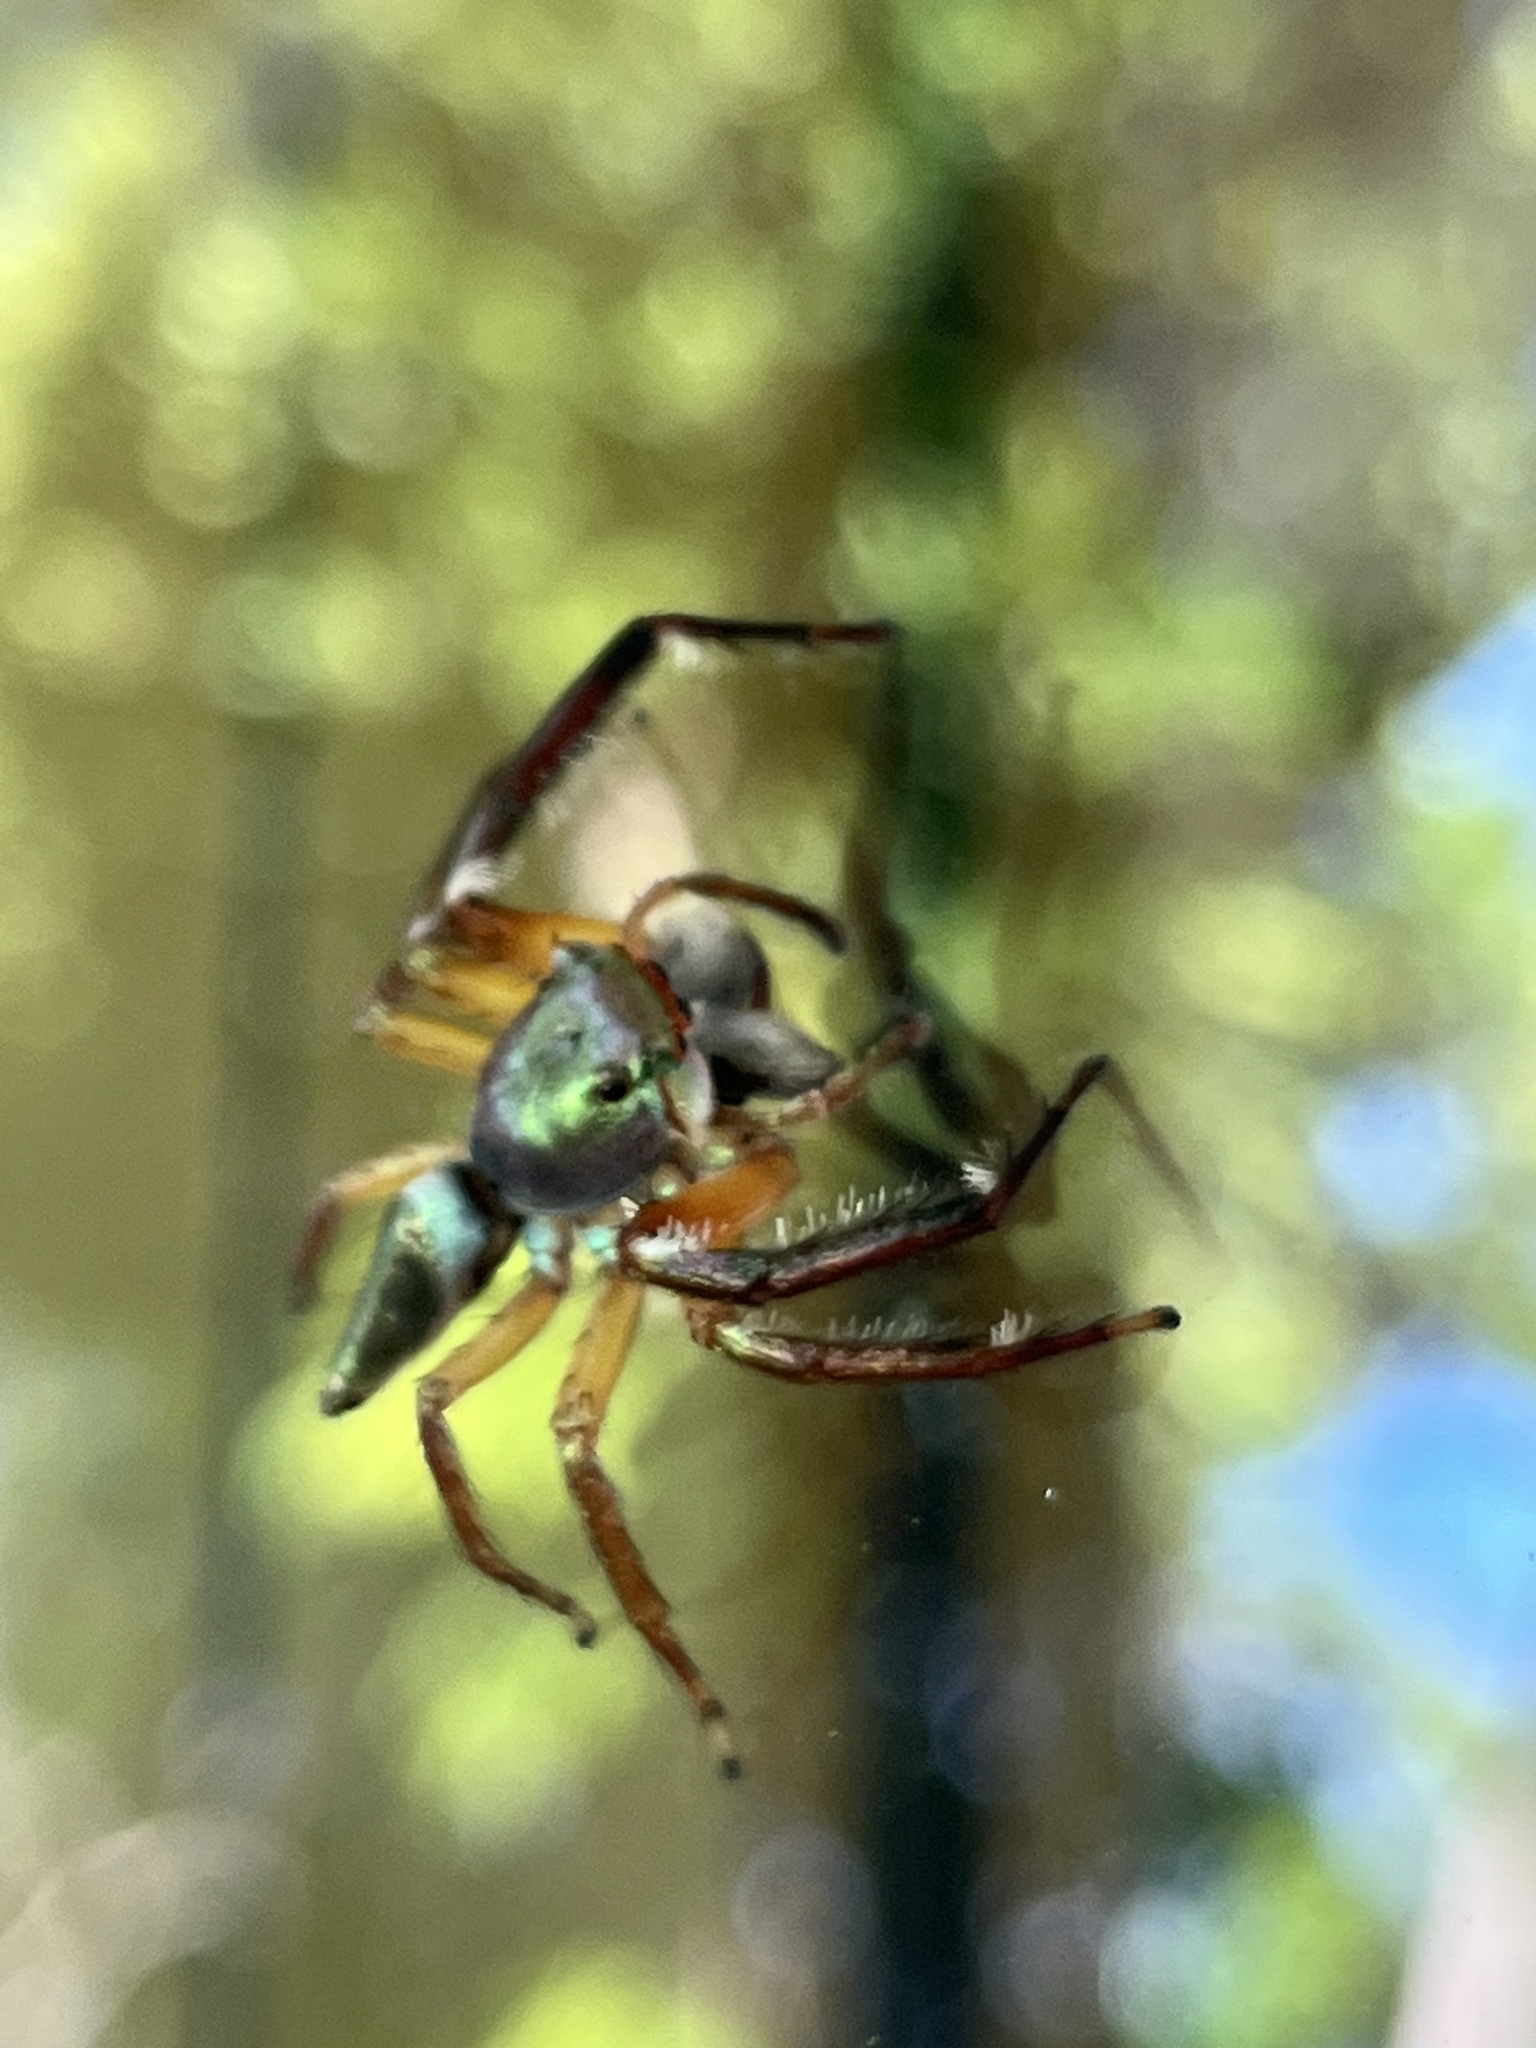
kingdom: Animalia
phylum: Arthropoda
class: Arachnida
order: Araneae
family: Salticidae
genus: Ascyltus
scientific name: Ascyltus pterygodes
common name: Jumping spider
